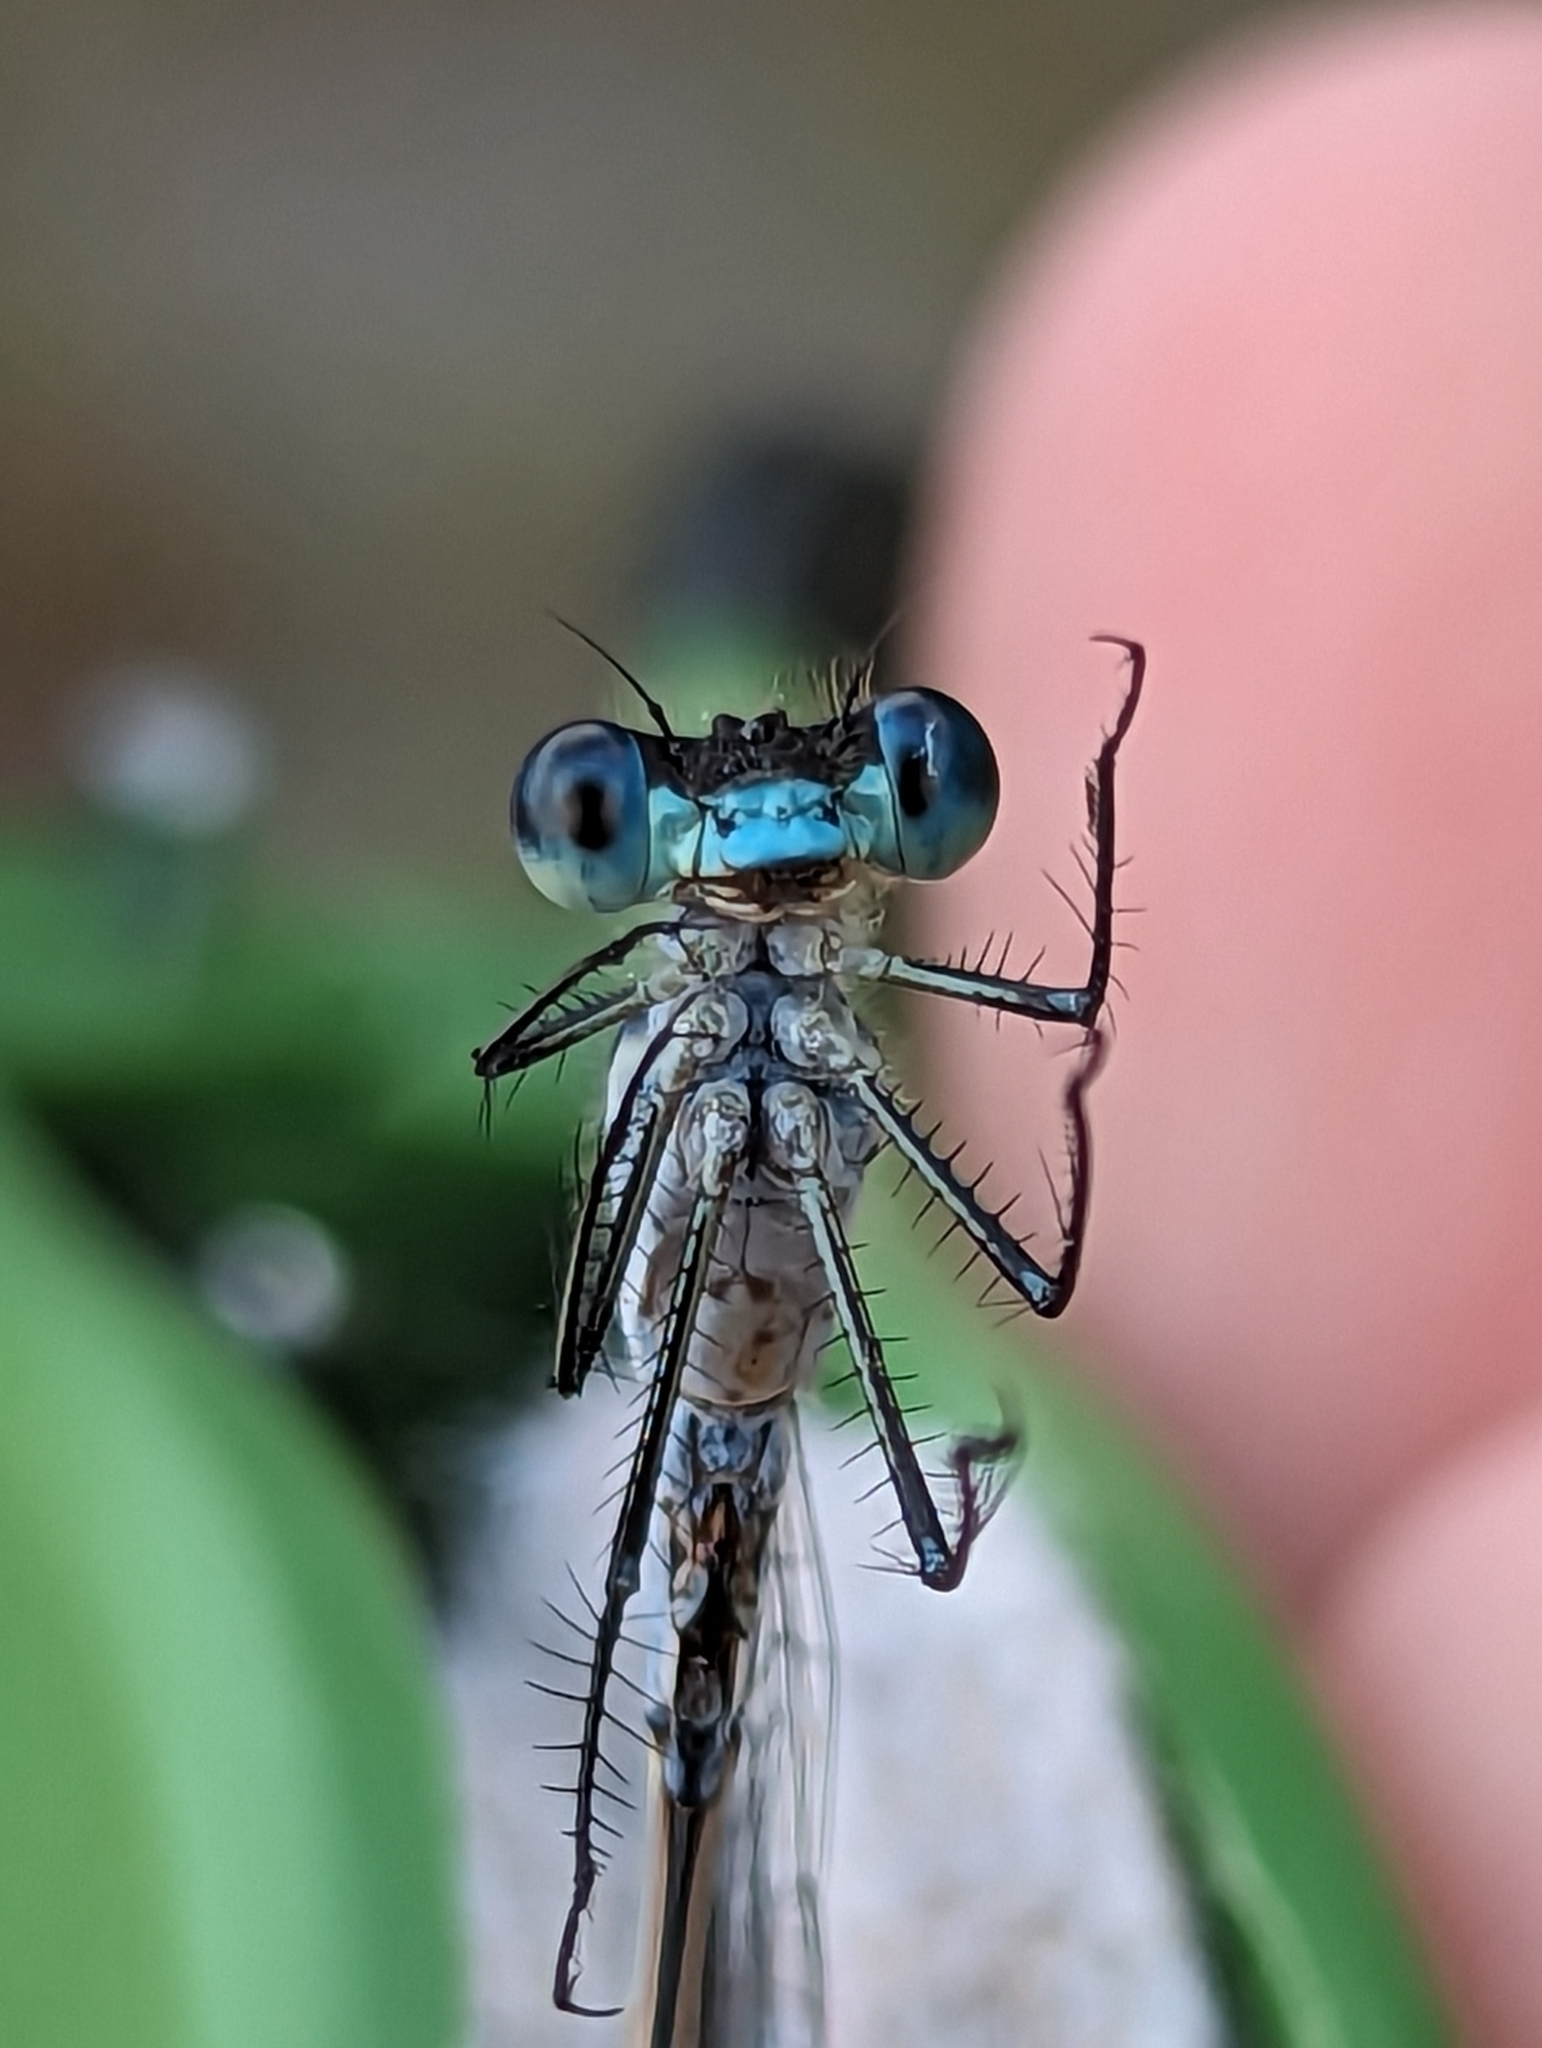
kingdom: Animalia
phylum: Arthropoda
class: Insecta
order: Odonata
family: Lestidae
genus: Lestes
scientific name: Lestes disjunctus
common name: Northern spreadwing
